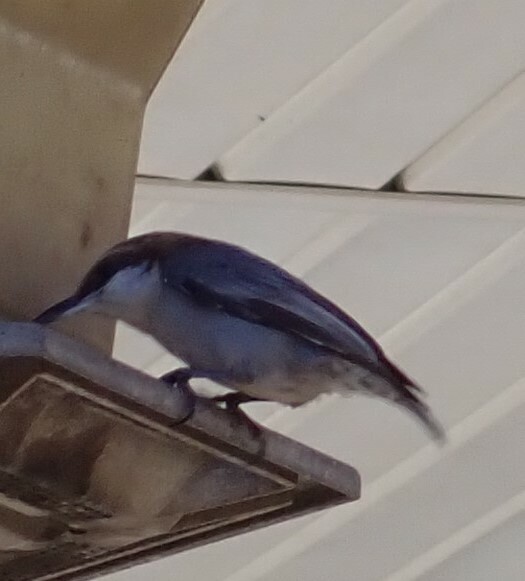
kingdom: Animalia
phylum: Chordata
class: Aves
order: Passeriformes
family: Sittidae
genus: Sitta
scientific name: Sitta pusilla
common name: Brown-headed nuthatch
